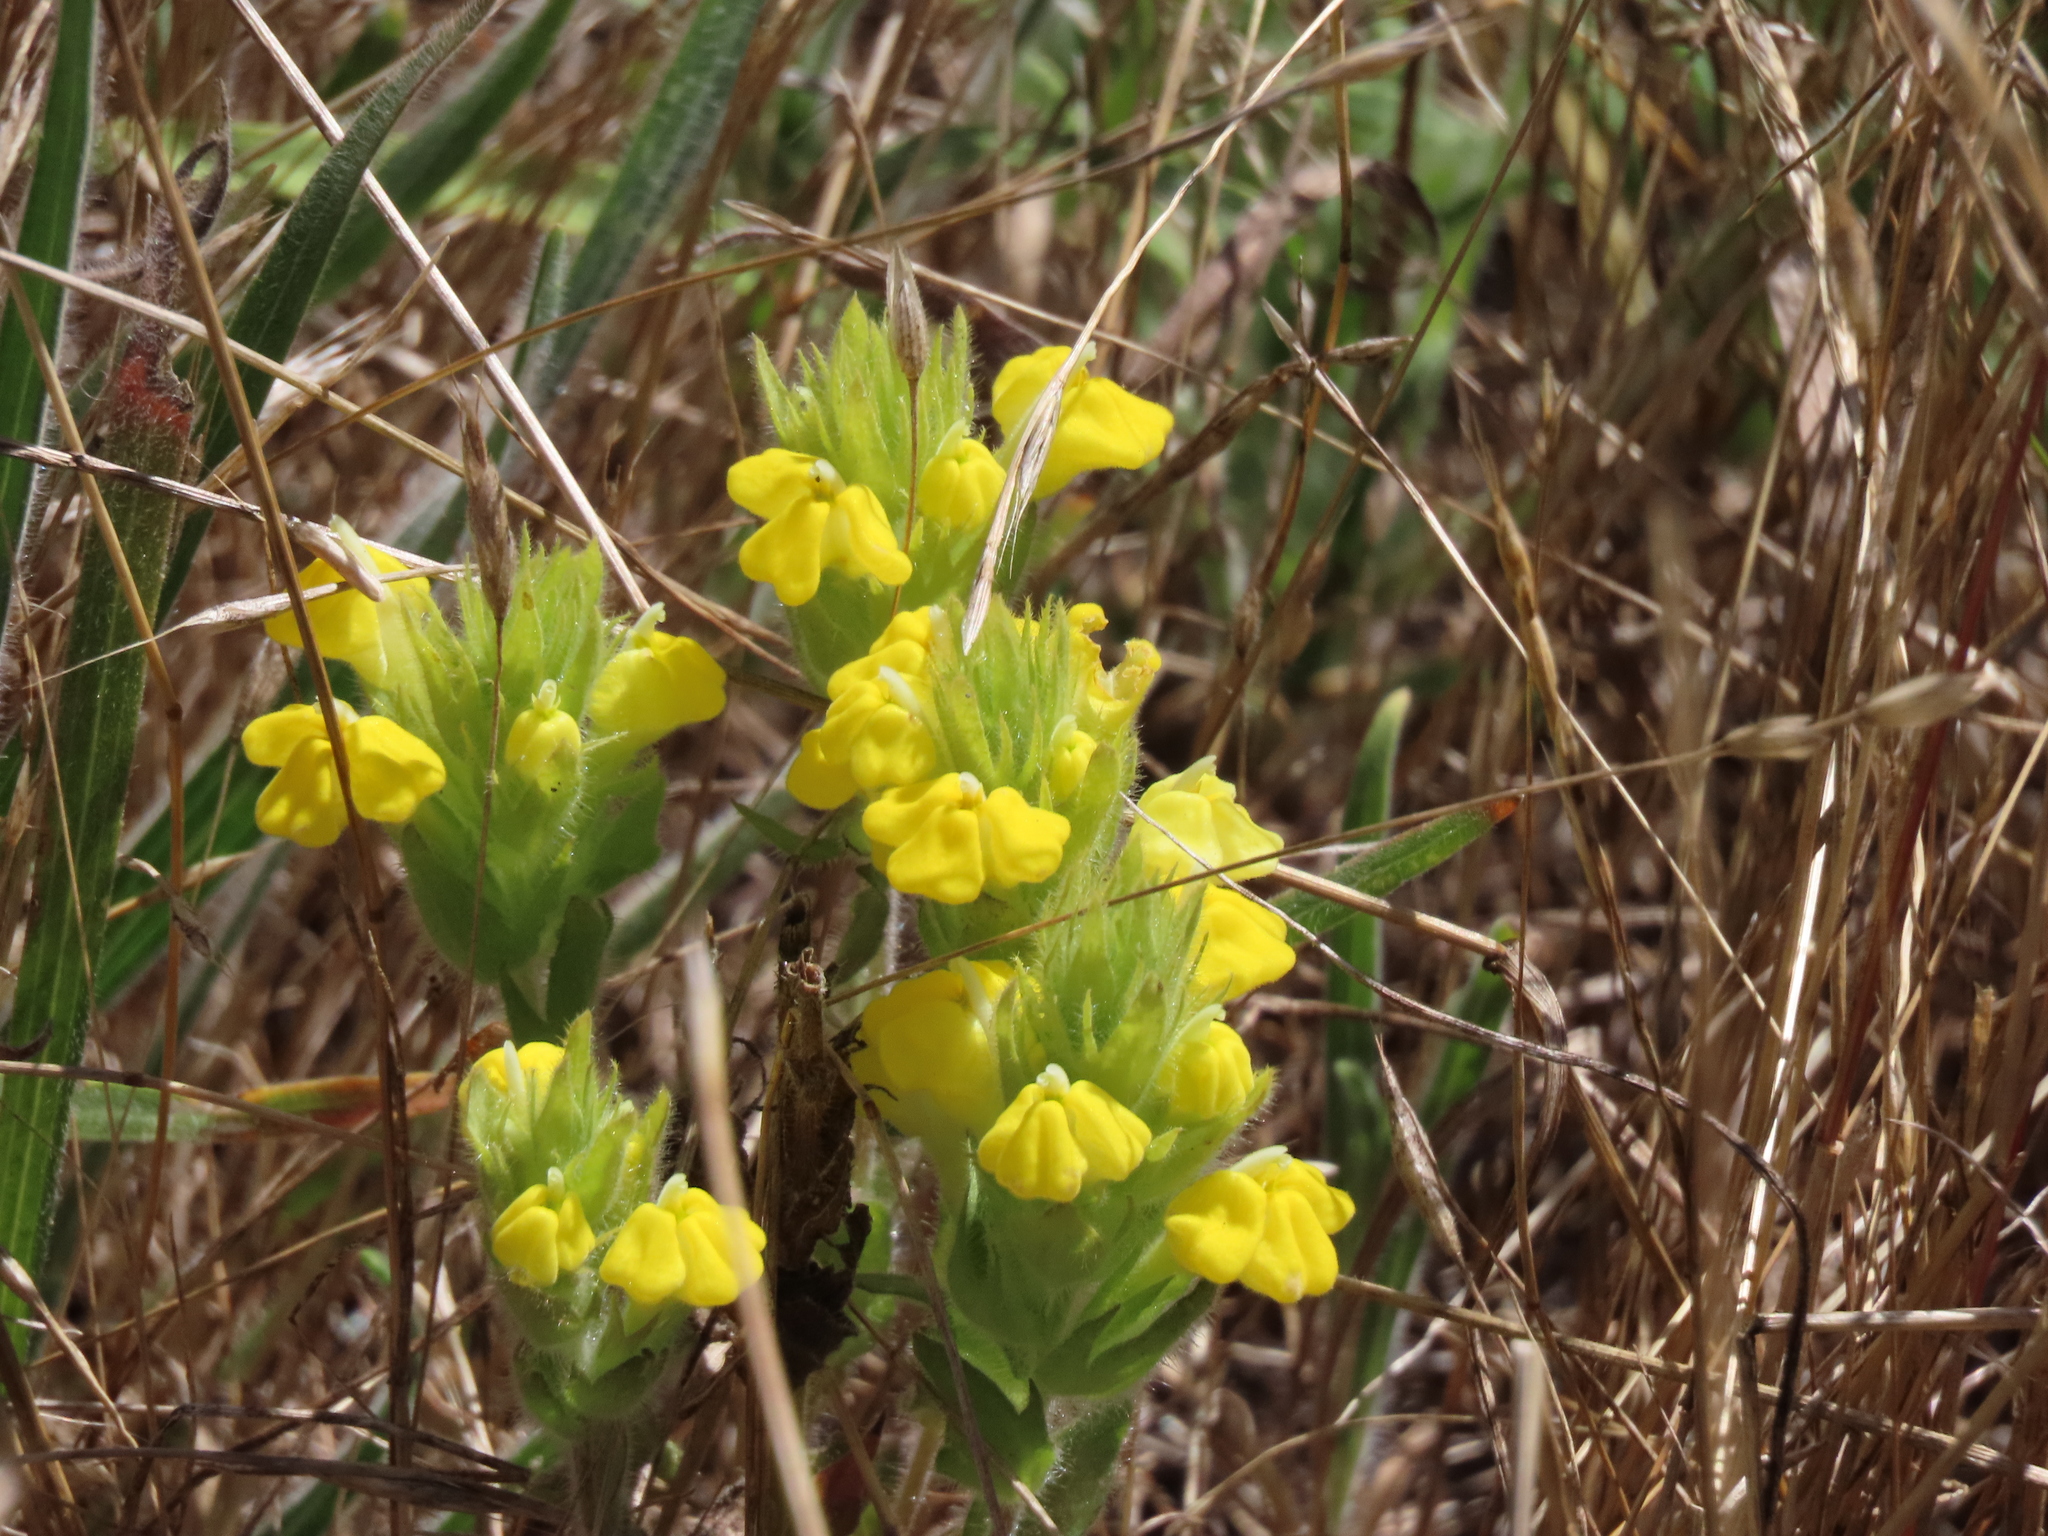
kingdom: Plantae
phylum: Tracheophyta
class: Magnoliopsida
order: Lamiales
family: Orobanchaceae
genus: Castilleja
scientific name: Castilleja rubicundula
